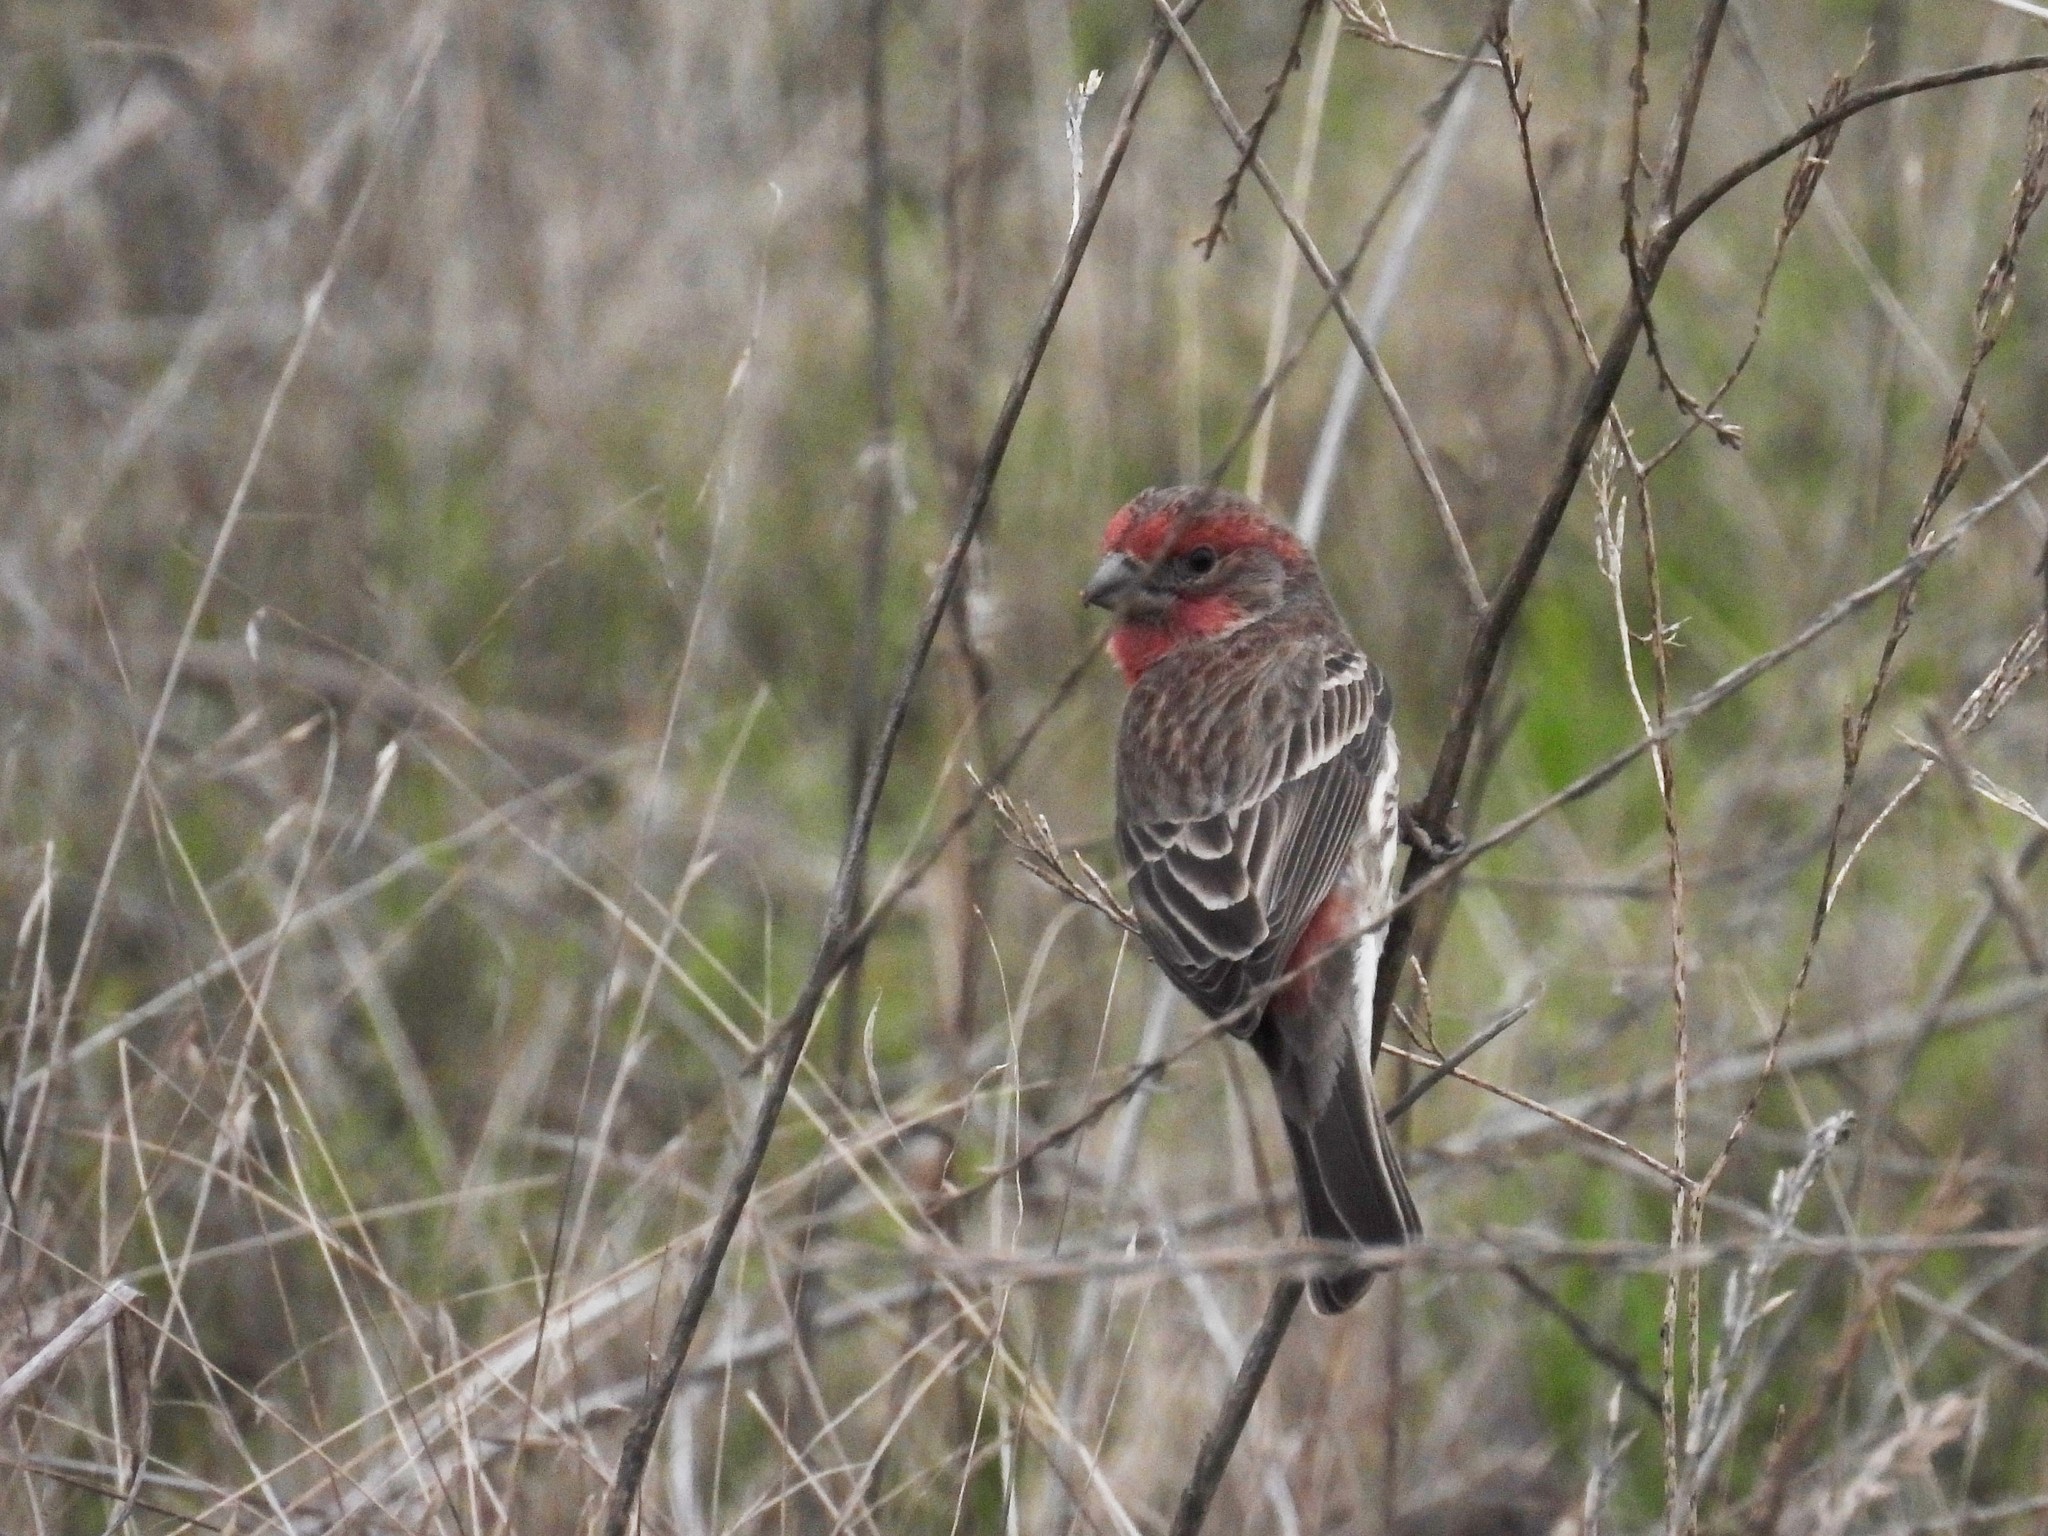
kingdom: Animalia
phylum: Chordata
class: Aves
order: Passeriformes
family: Fringillidae
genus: Haemorhous
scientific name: Haemorhous mexicanus
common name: House finch
